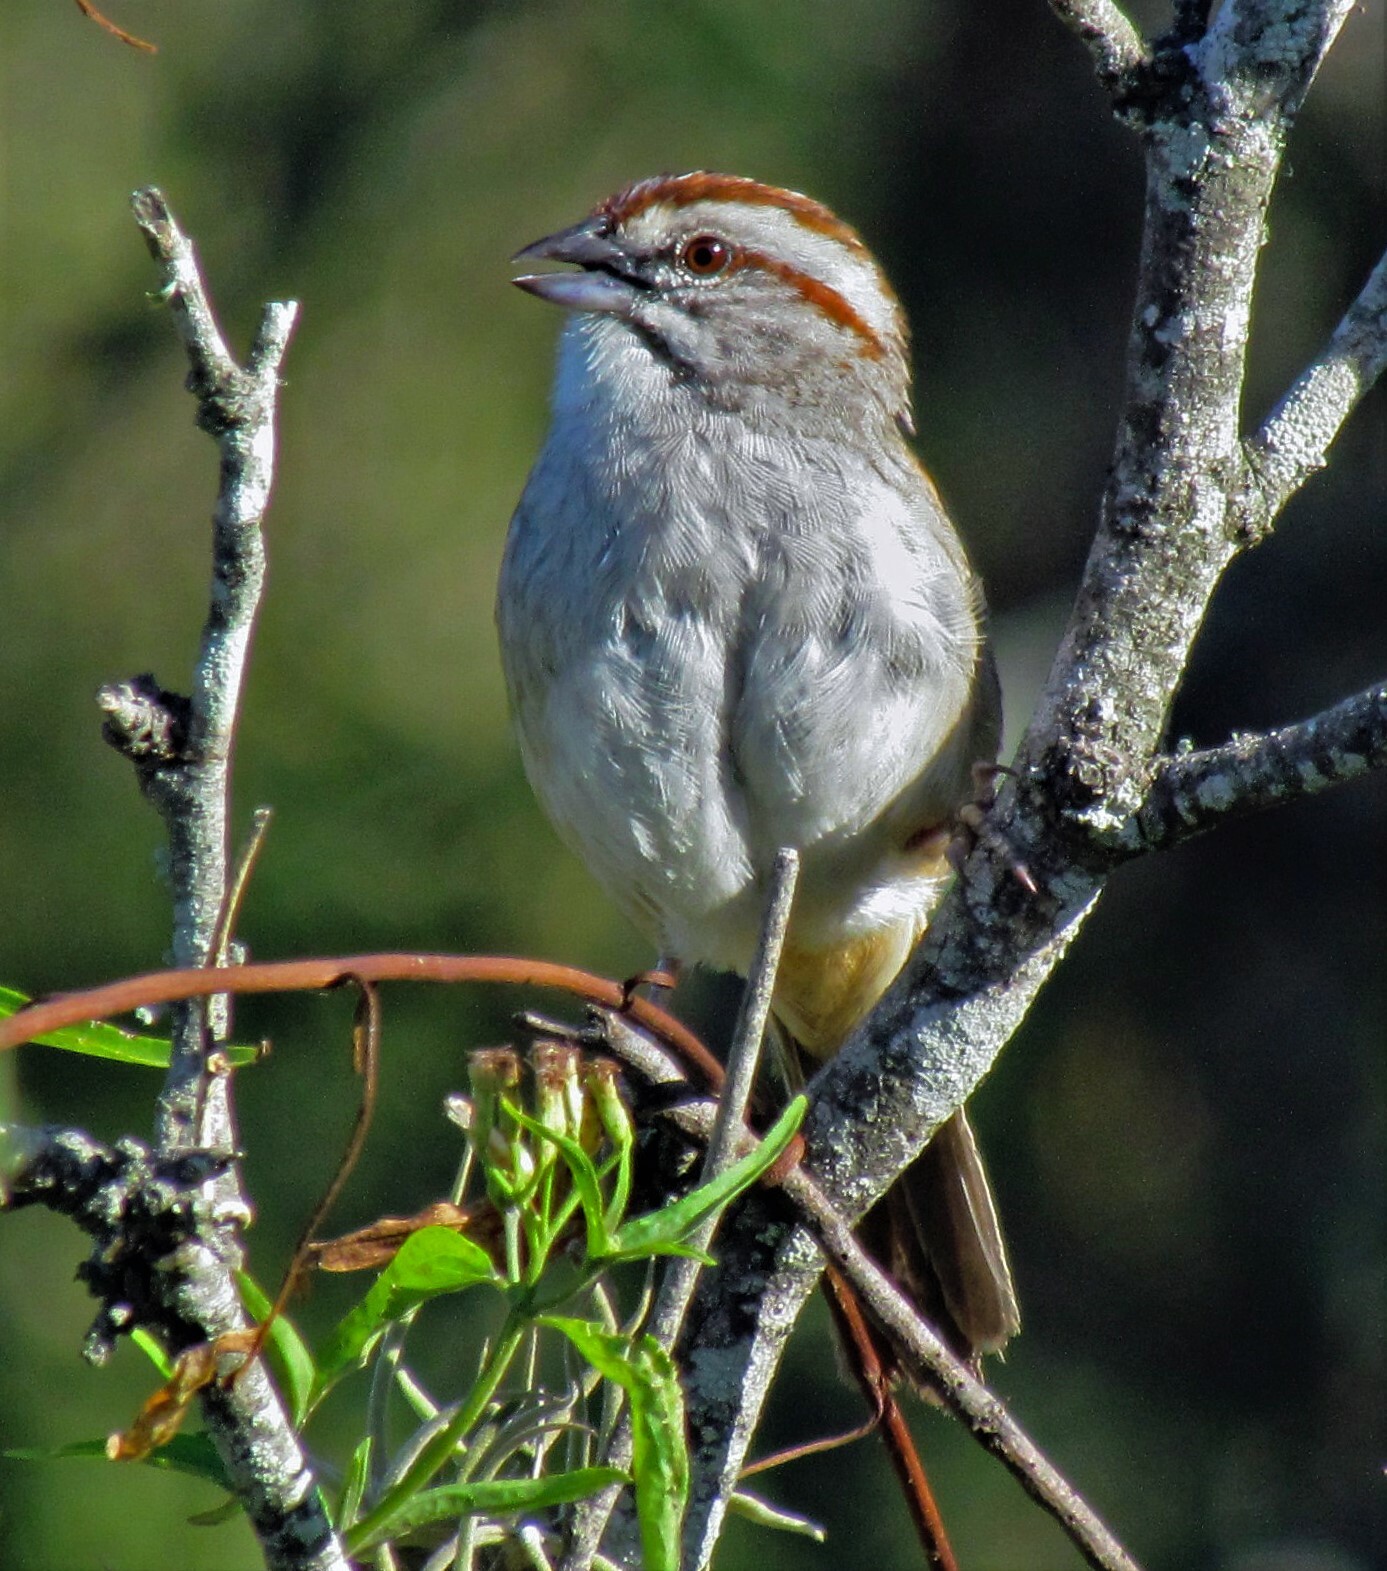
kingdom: Animalia
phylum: Chordata
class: Aves
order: Passeriformes
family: Passerellidae
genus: Rhynchospiza
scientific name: Rhynchospiza strigiceps
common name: Stripe-capped sparrow
